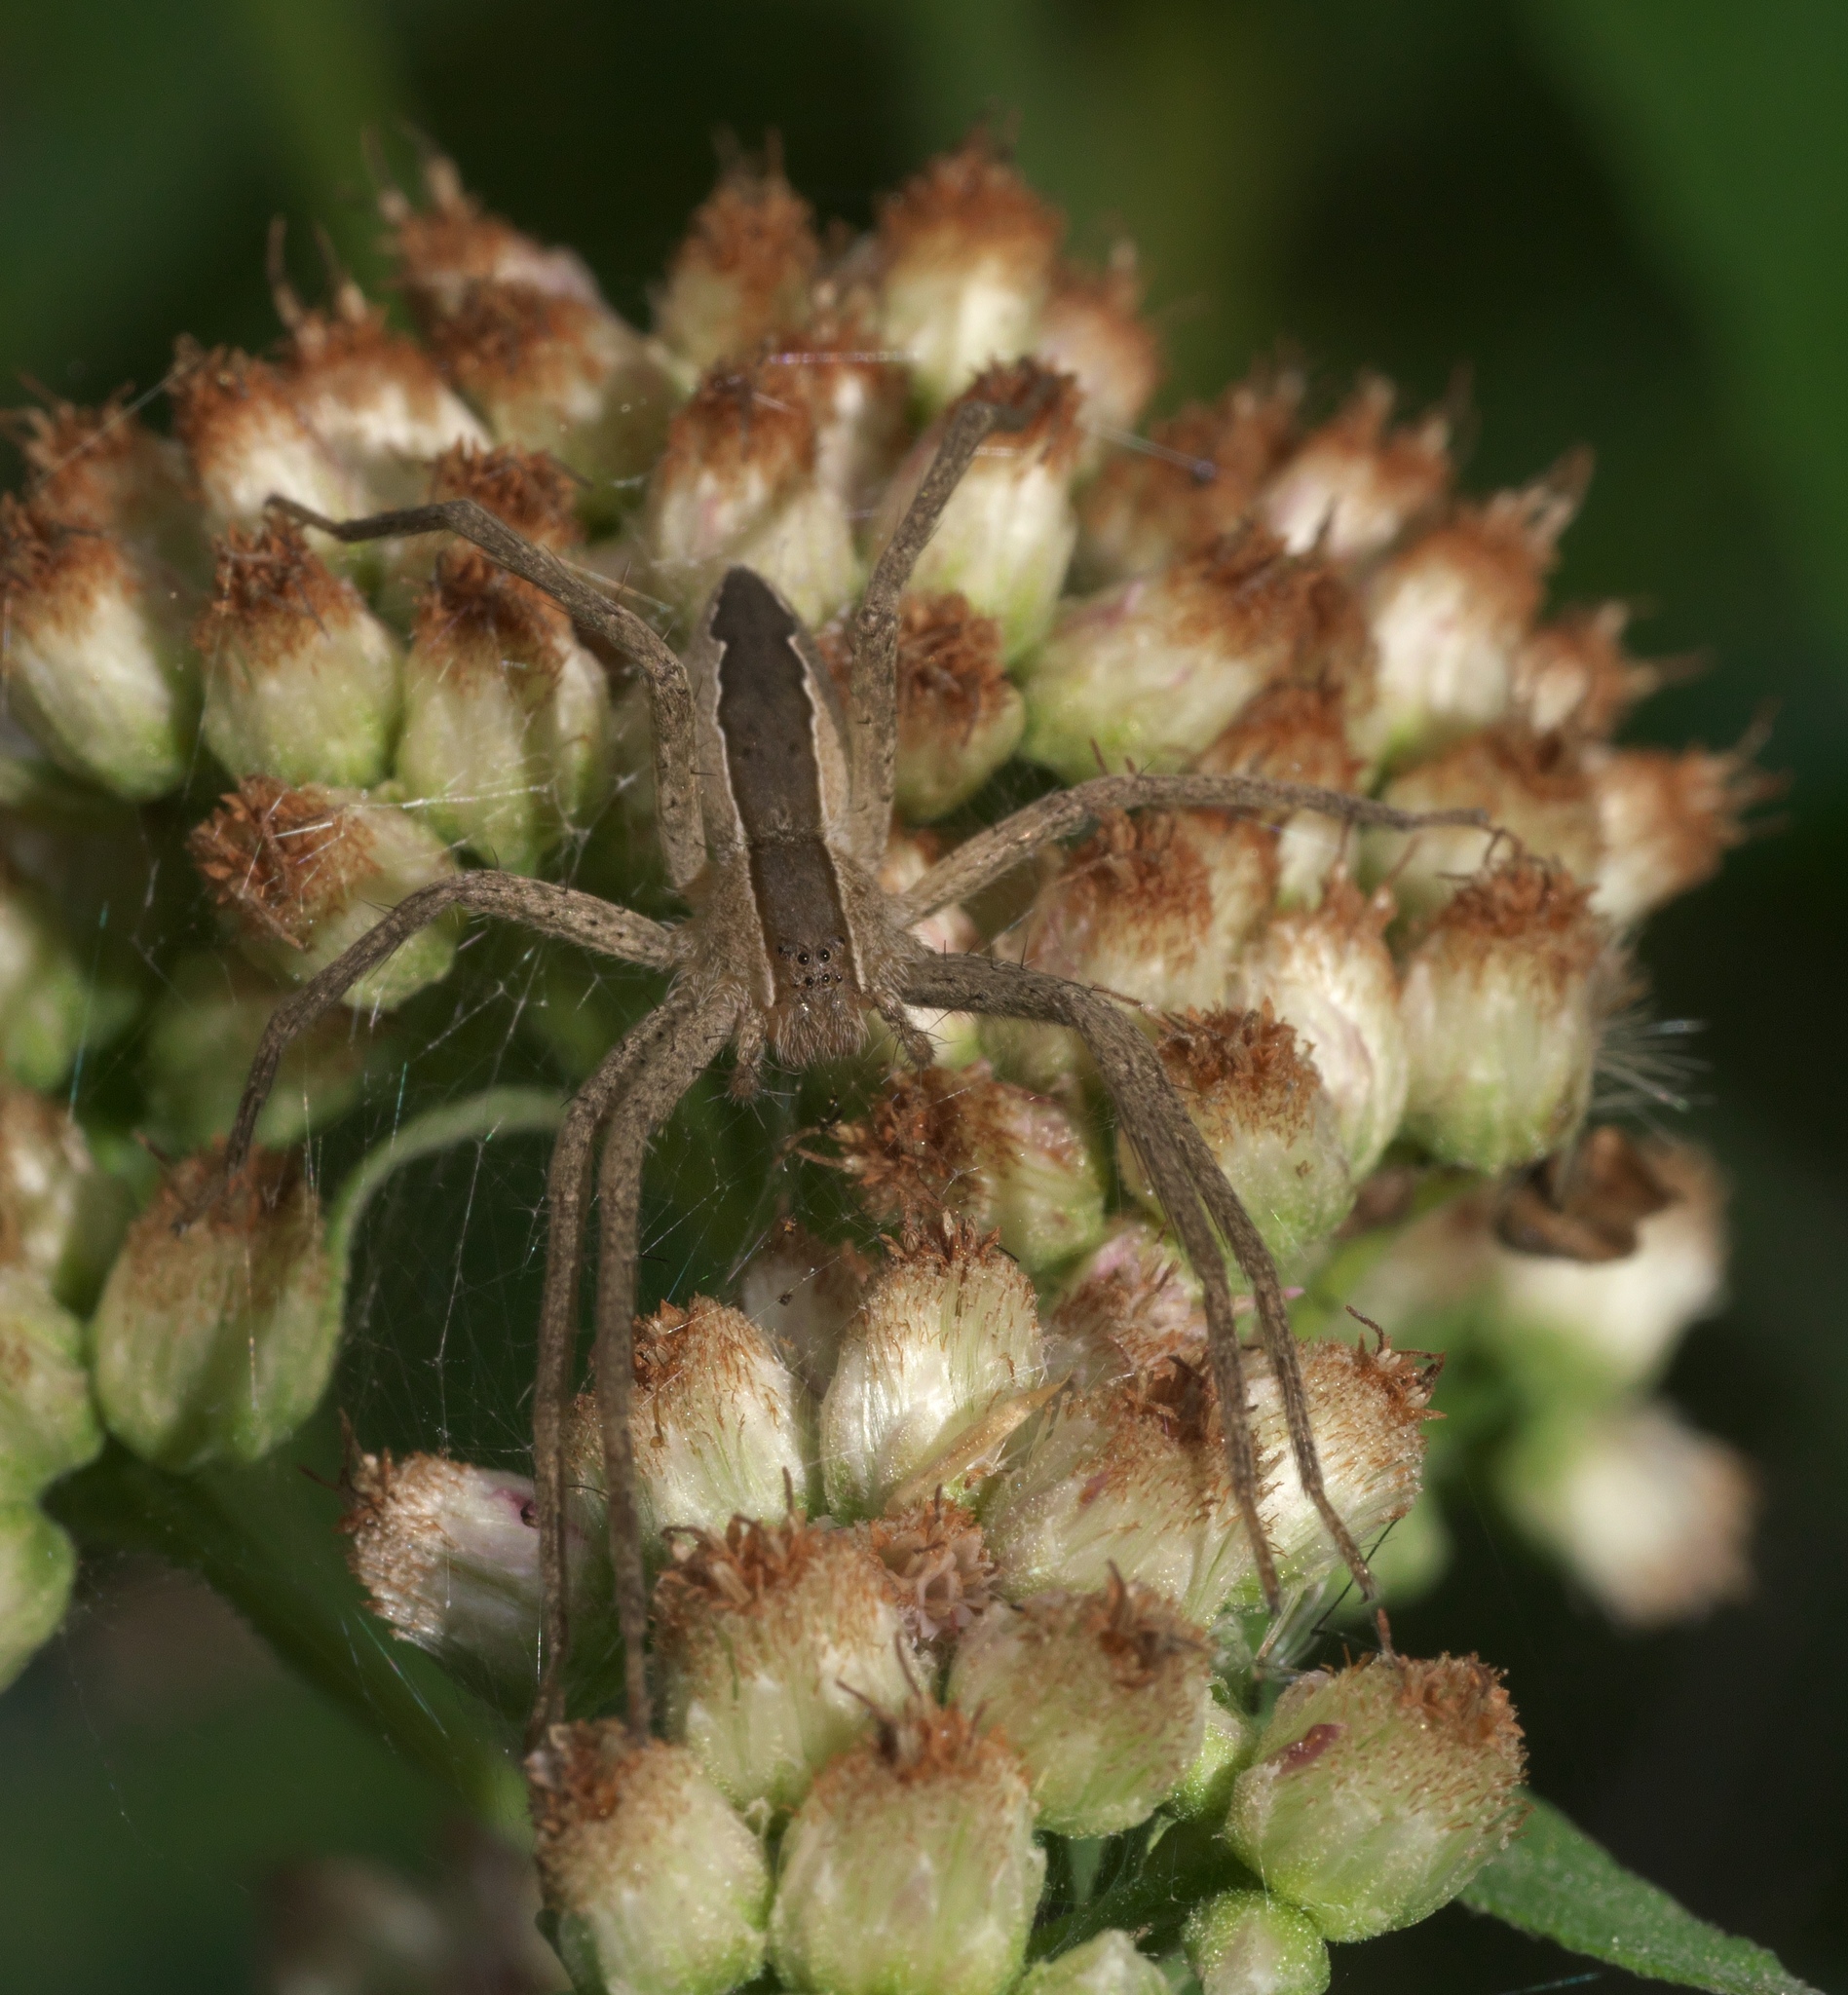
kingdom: Animalia
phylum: Arthropoda
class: Arachnida
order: Araneae
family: Pisauridae
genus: Pisaurina
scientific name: Pisaurina mira
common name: American nursery web spider
